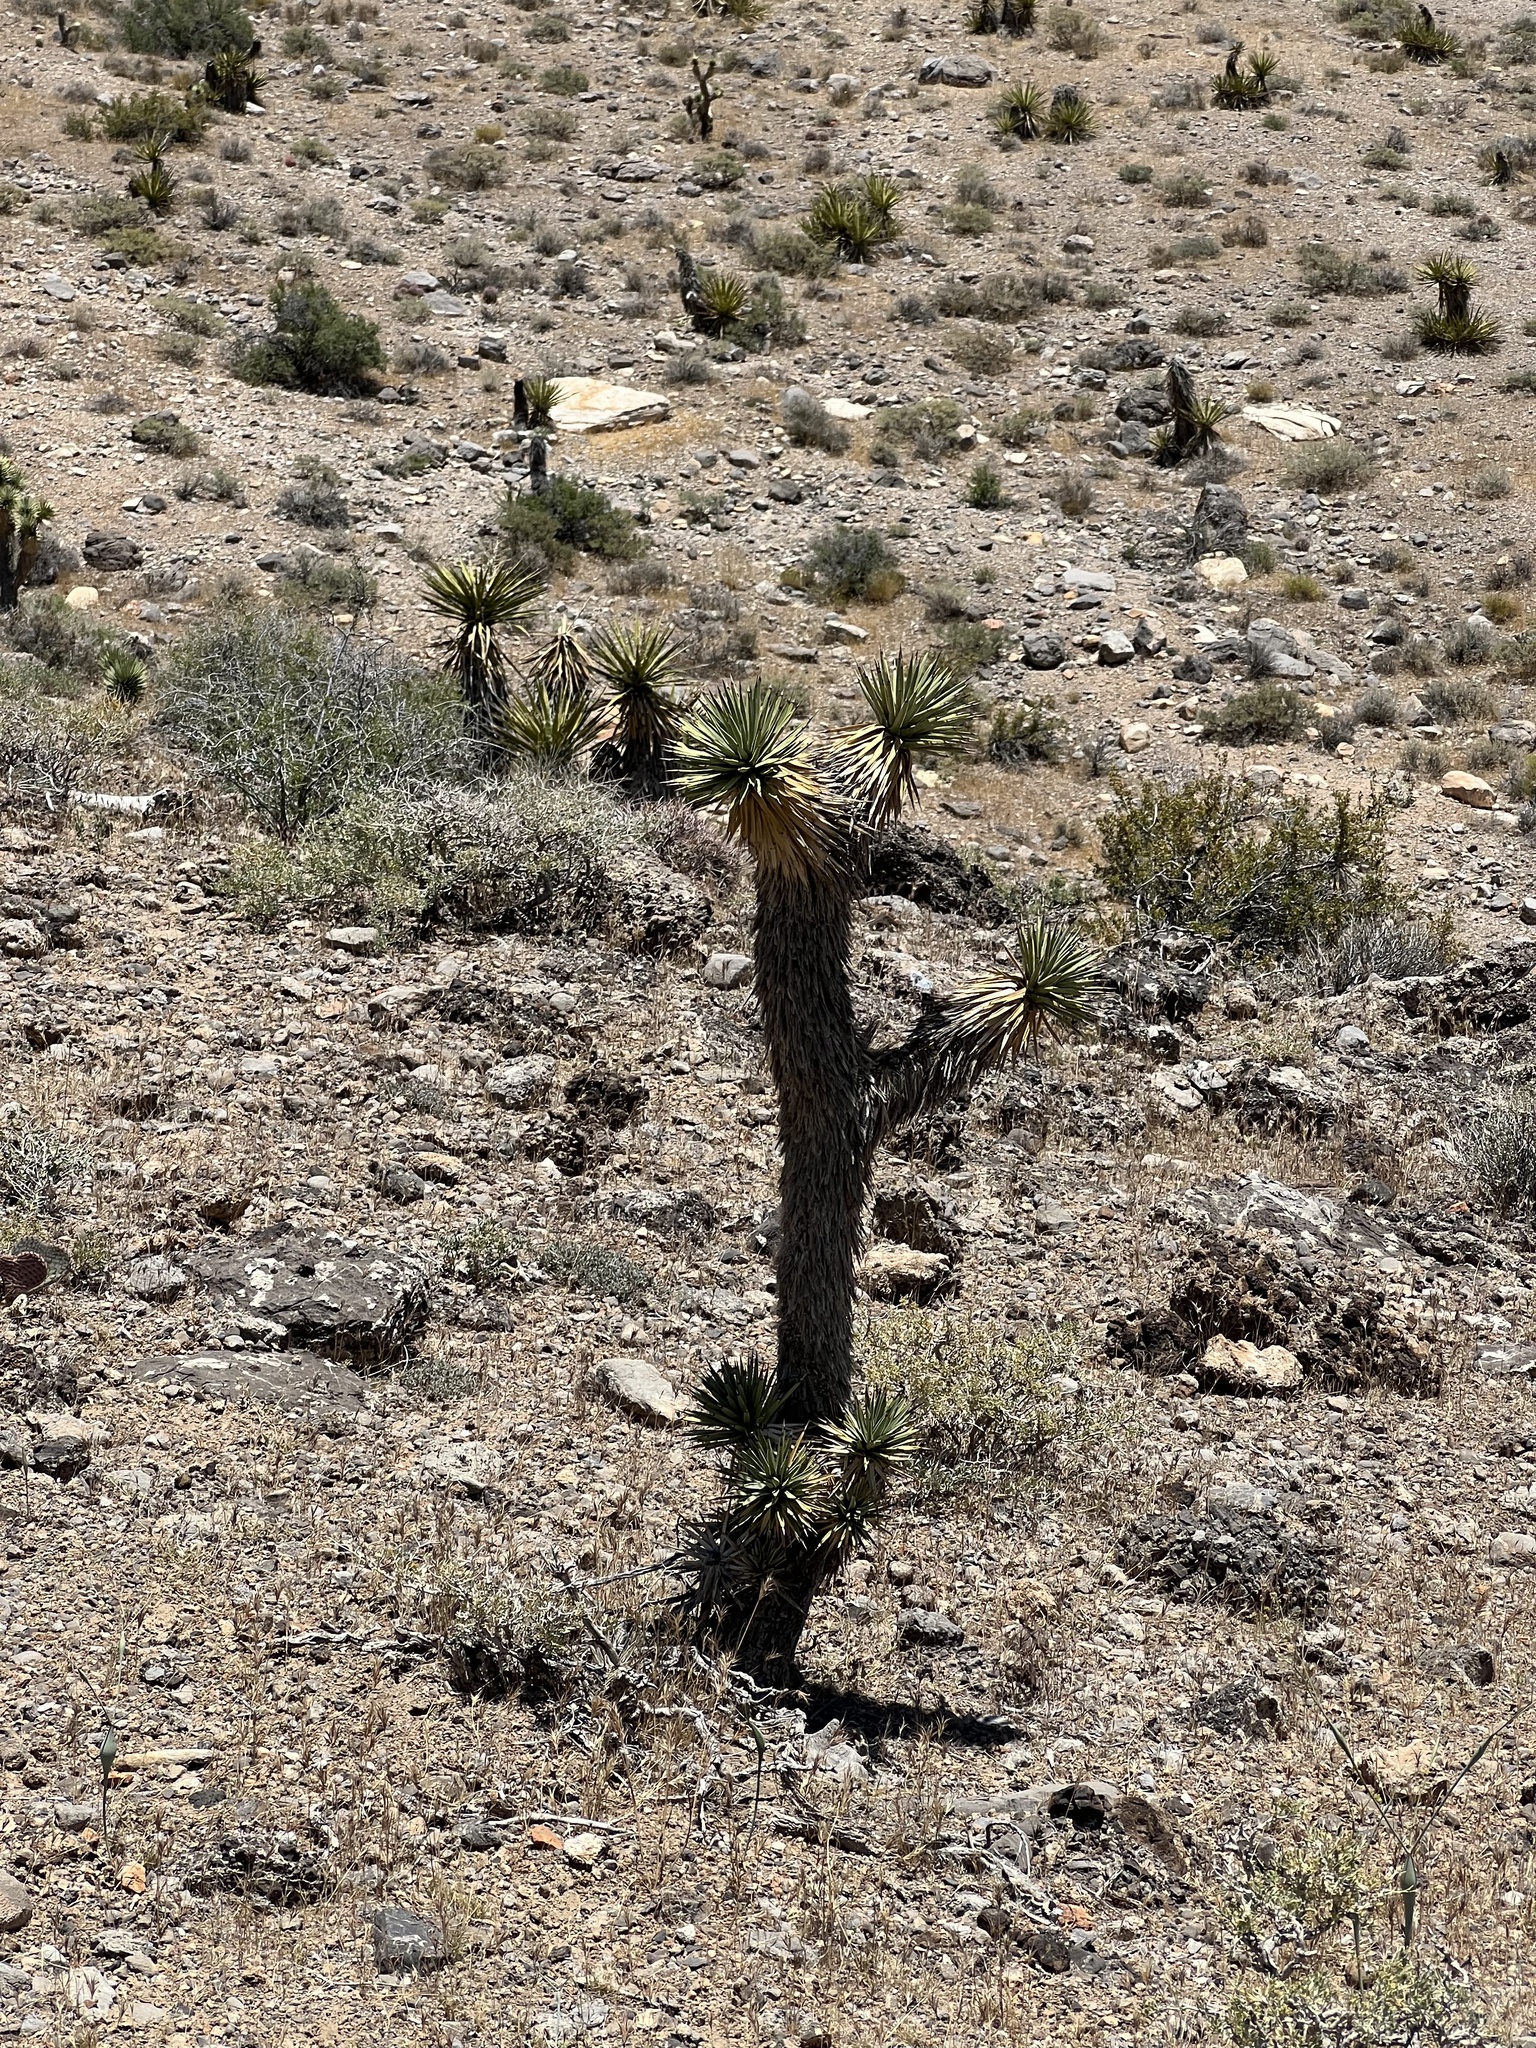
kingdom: Plantae
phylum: Tracheophyta
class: Liliopsida
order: Asparagales
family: Asparagaceae
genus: Yucca
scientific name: Yucca brevifolia
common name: Joshua tree
